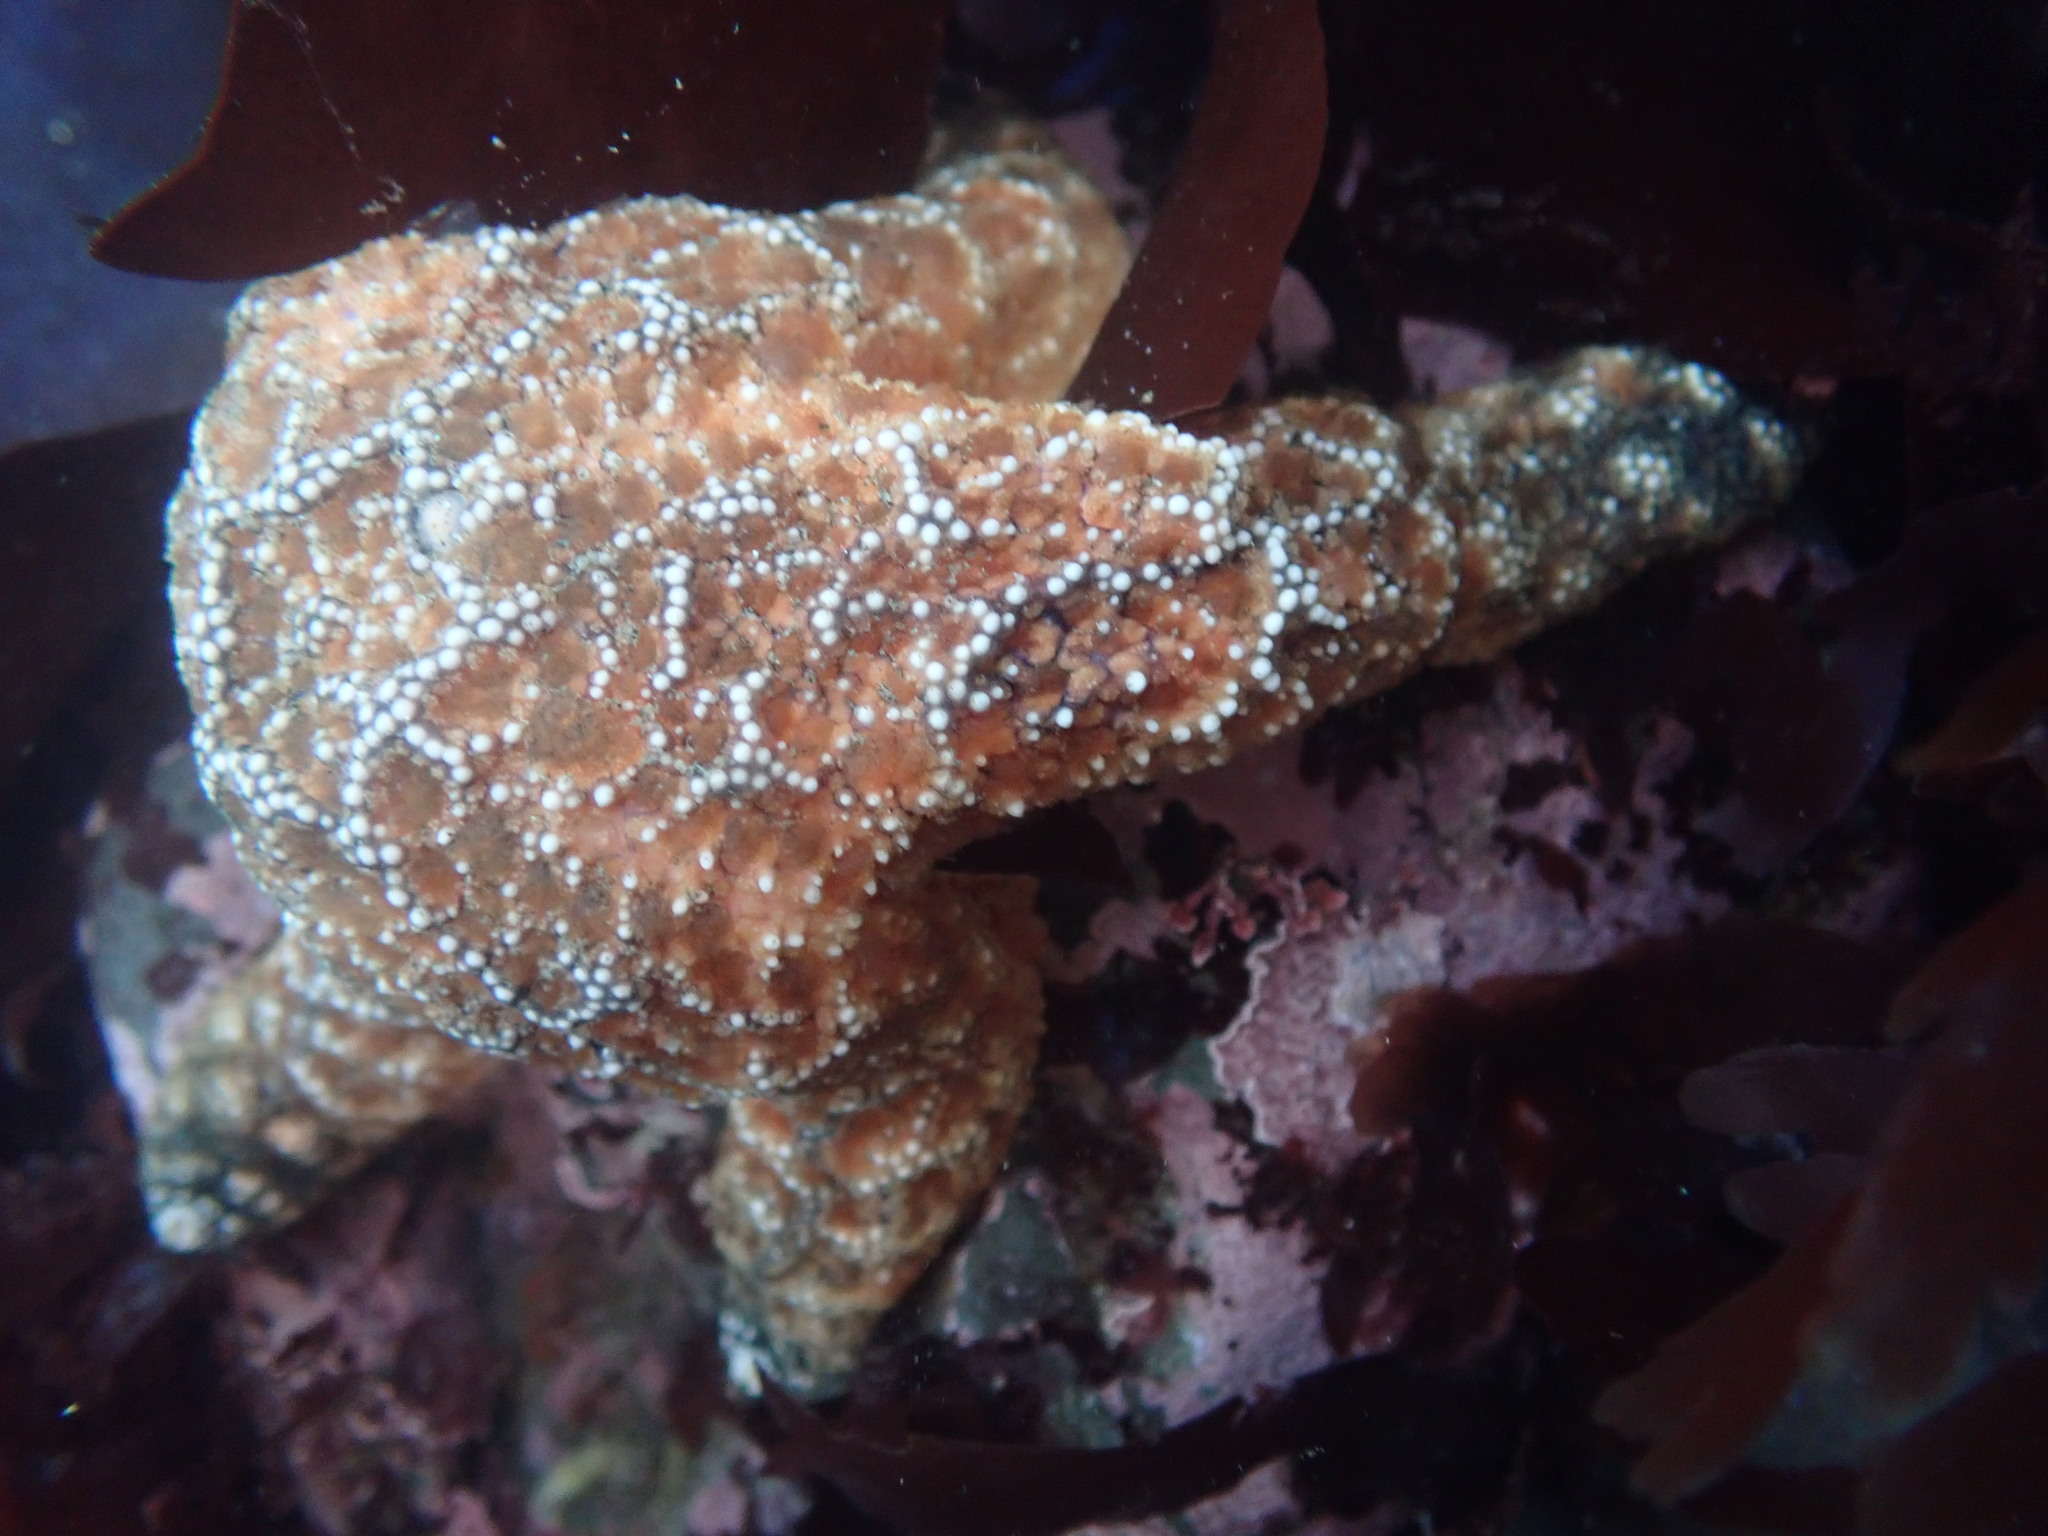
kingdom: Animalia
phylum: Echinodermata
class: Asteroidea
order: Forcipulatida
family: Asteriidae
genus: Pisaster
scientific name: Pisaster ochraceus
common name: Ochre stars
